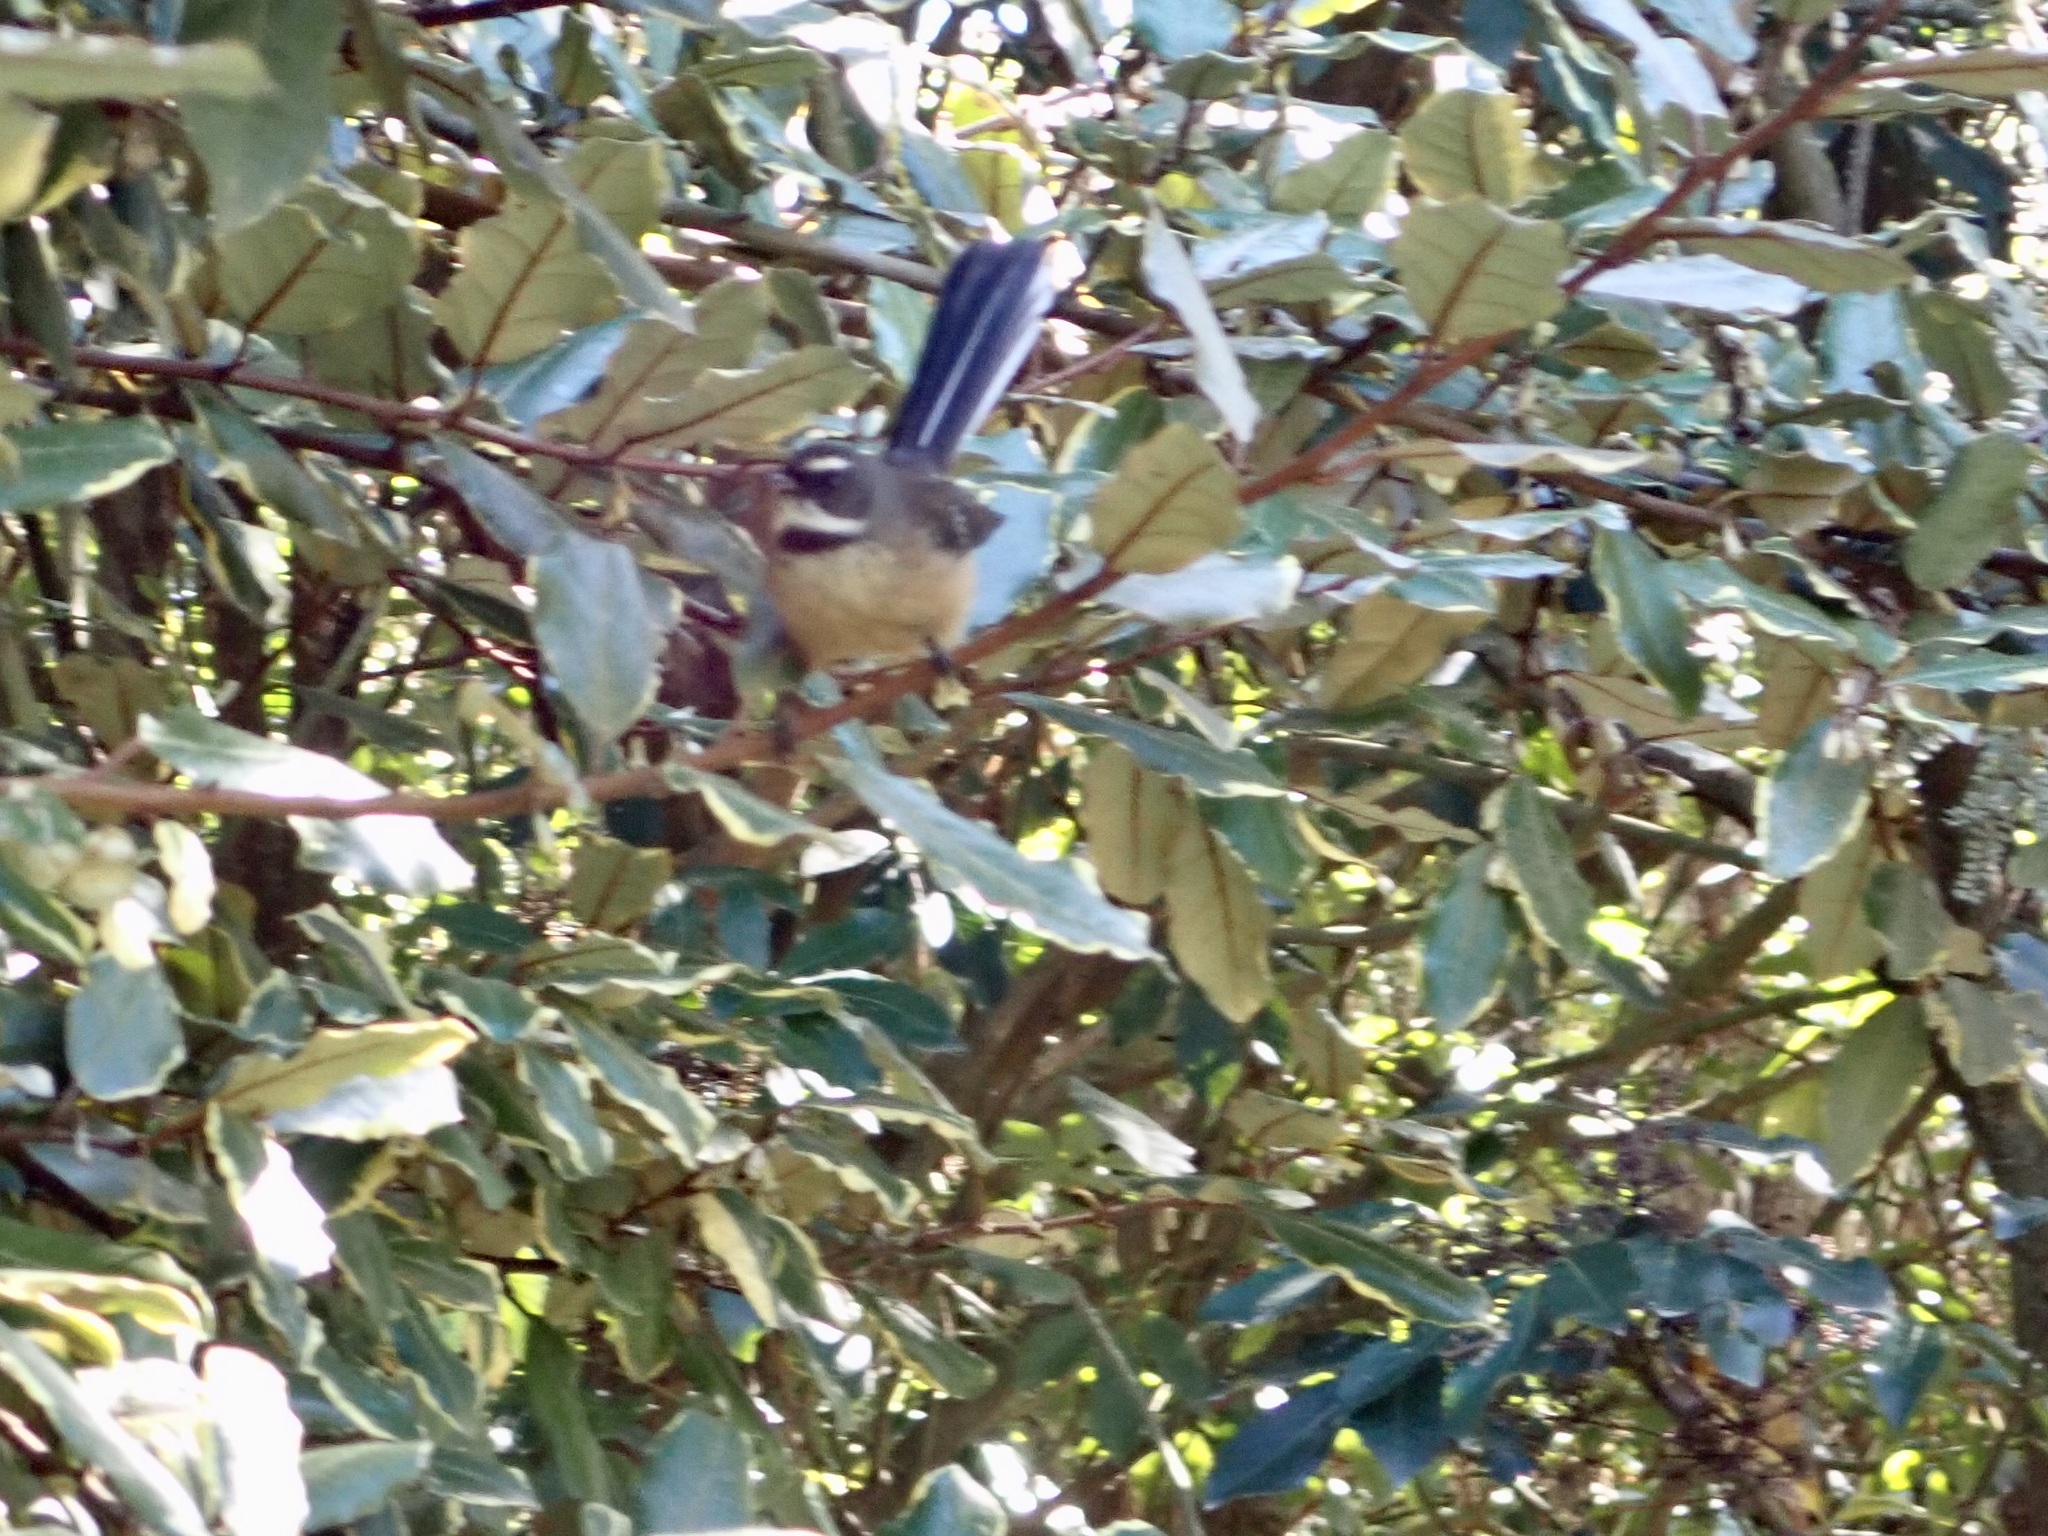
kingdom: Animalia
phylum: Chordata
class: Aves
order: Passeriformes
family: Rhipiduridae
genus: Rhipidura
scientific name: Rhipidura fuliginosa
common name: New zealand fantail
